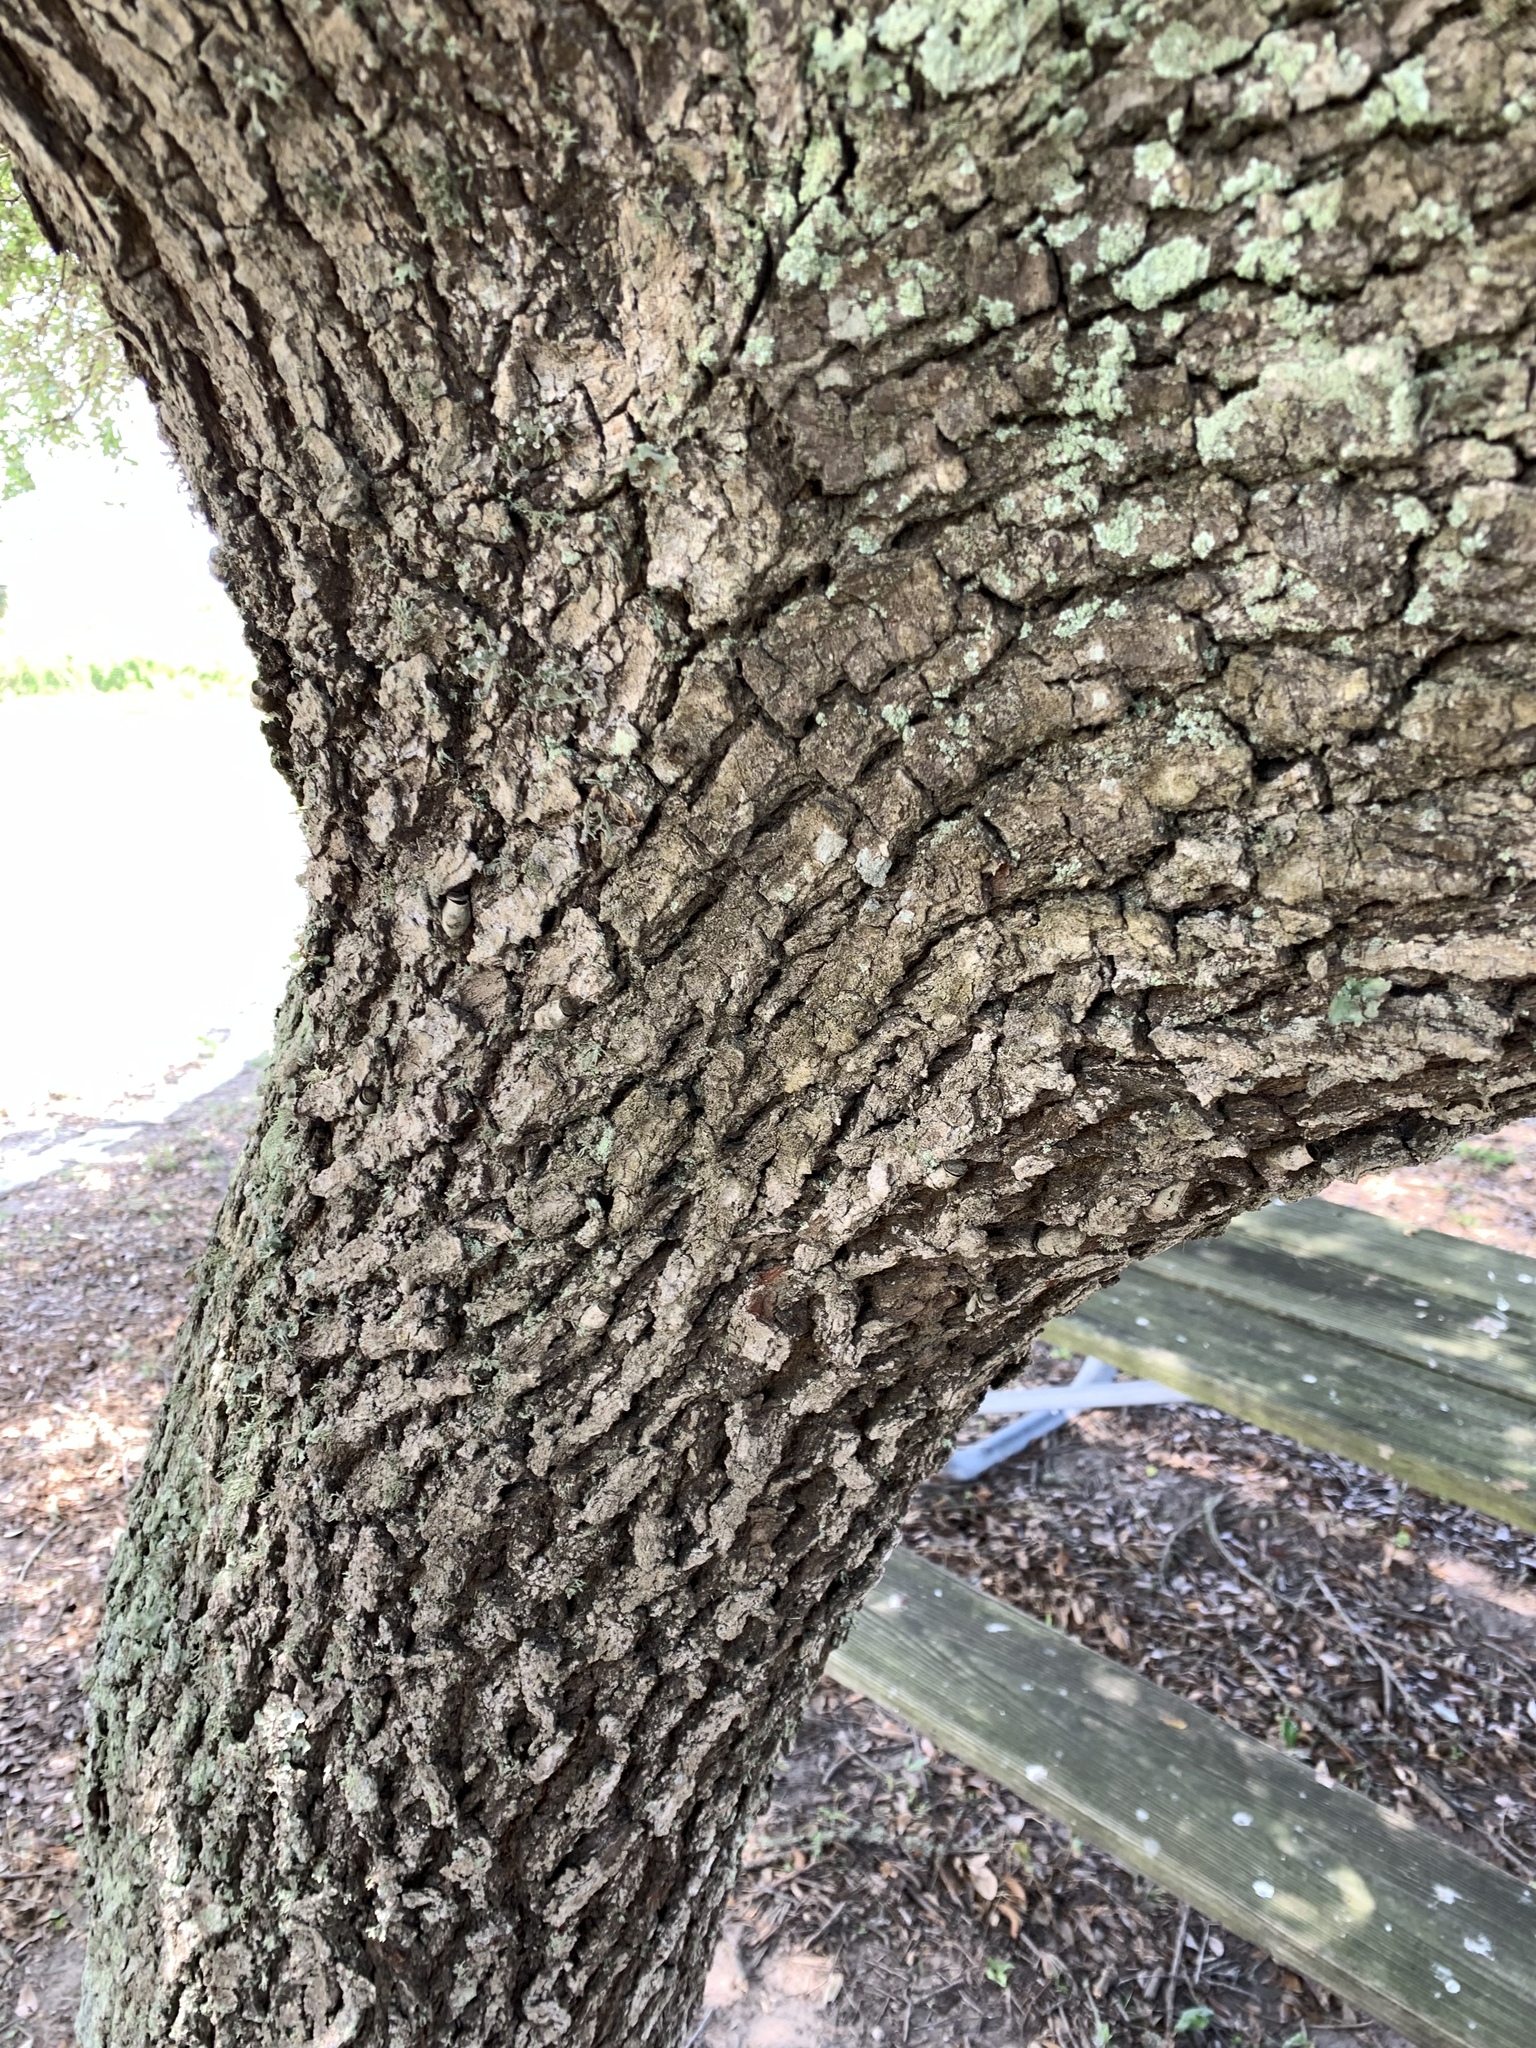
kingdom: Plantae
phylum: Tracheophyta
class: Magnoliopsida
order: Fagales
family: Fagaceae
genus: Quercus
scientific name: Quercus virginiana
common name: Southern live oak
